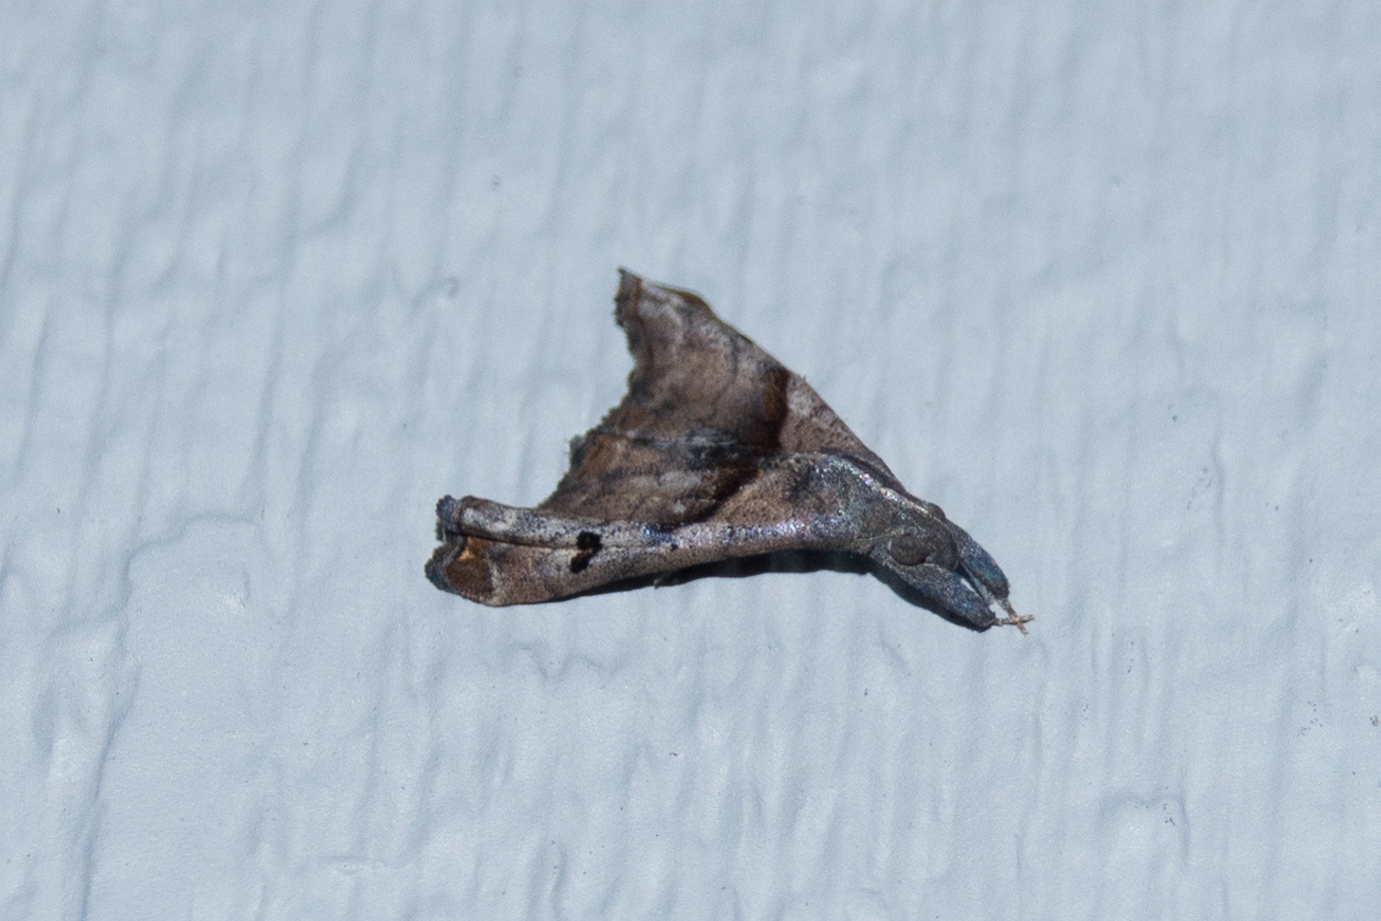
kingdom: Animalia
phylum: Arthropoda
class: Insecta
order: Lepidoptera
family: Erebidae
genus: Palthis
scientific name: Palthis angulalis
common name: Dark-spotted palthis moth
